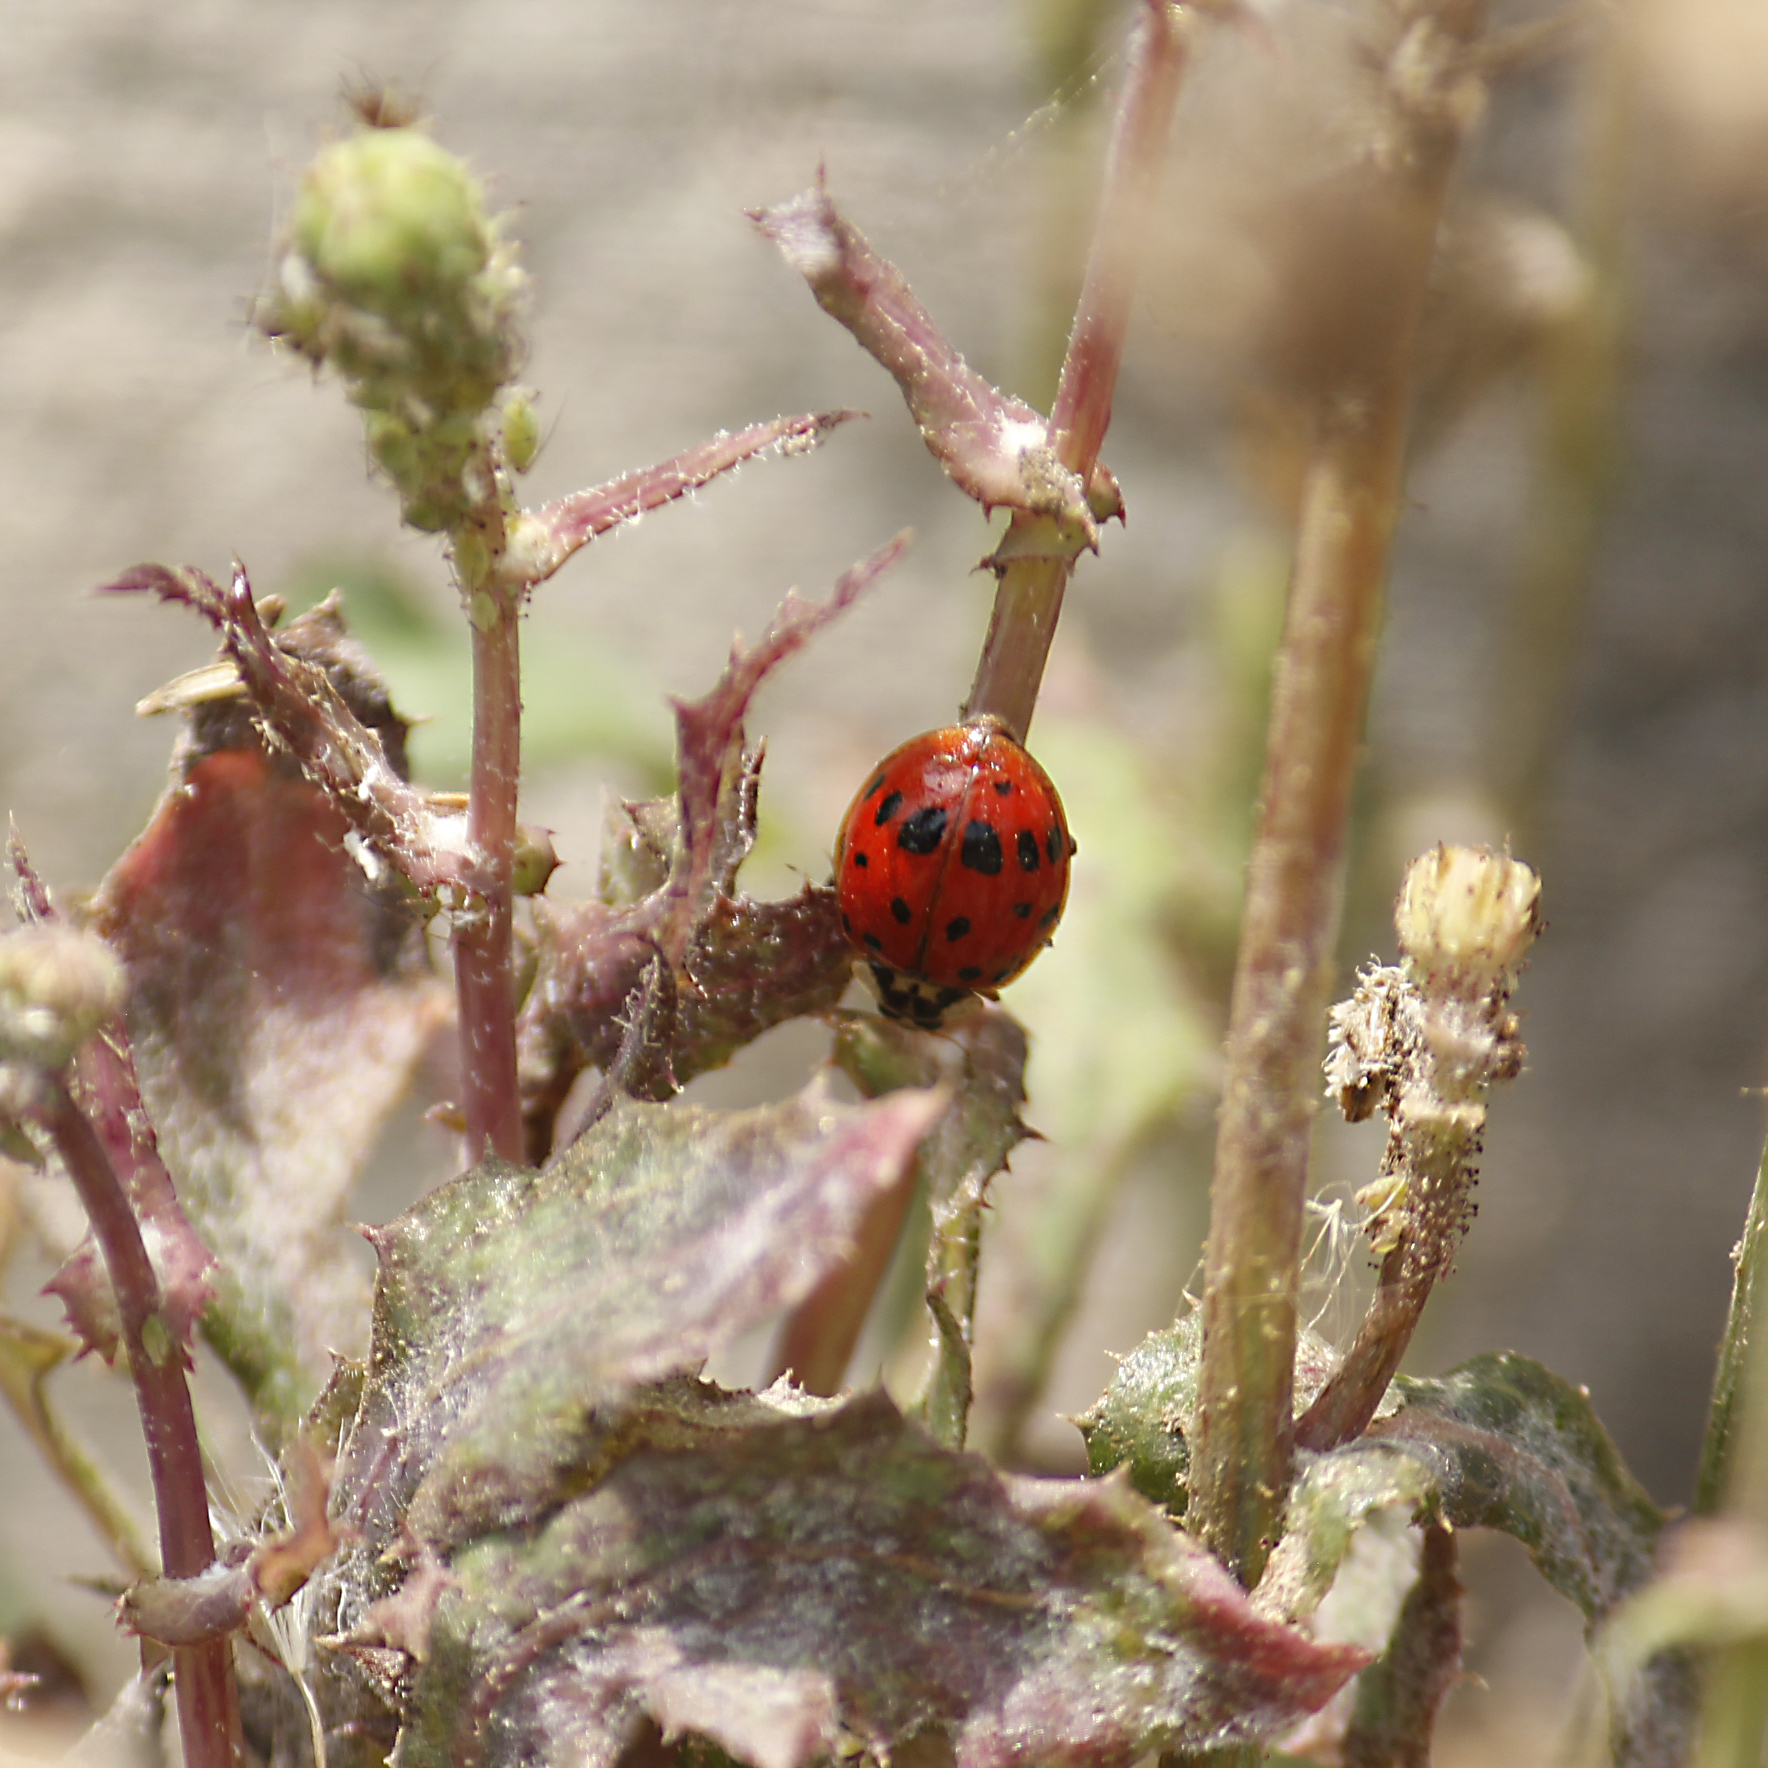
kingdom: Animalia
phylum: Arthropoda
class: Insecta
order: Coleoptera
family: Coccinellidae
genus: Harmonia
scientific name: Harmonia axyridis
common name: Harlequin ladybird
